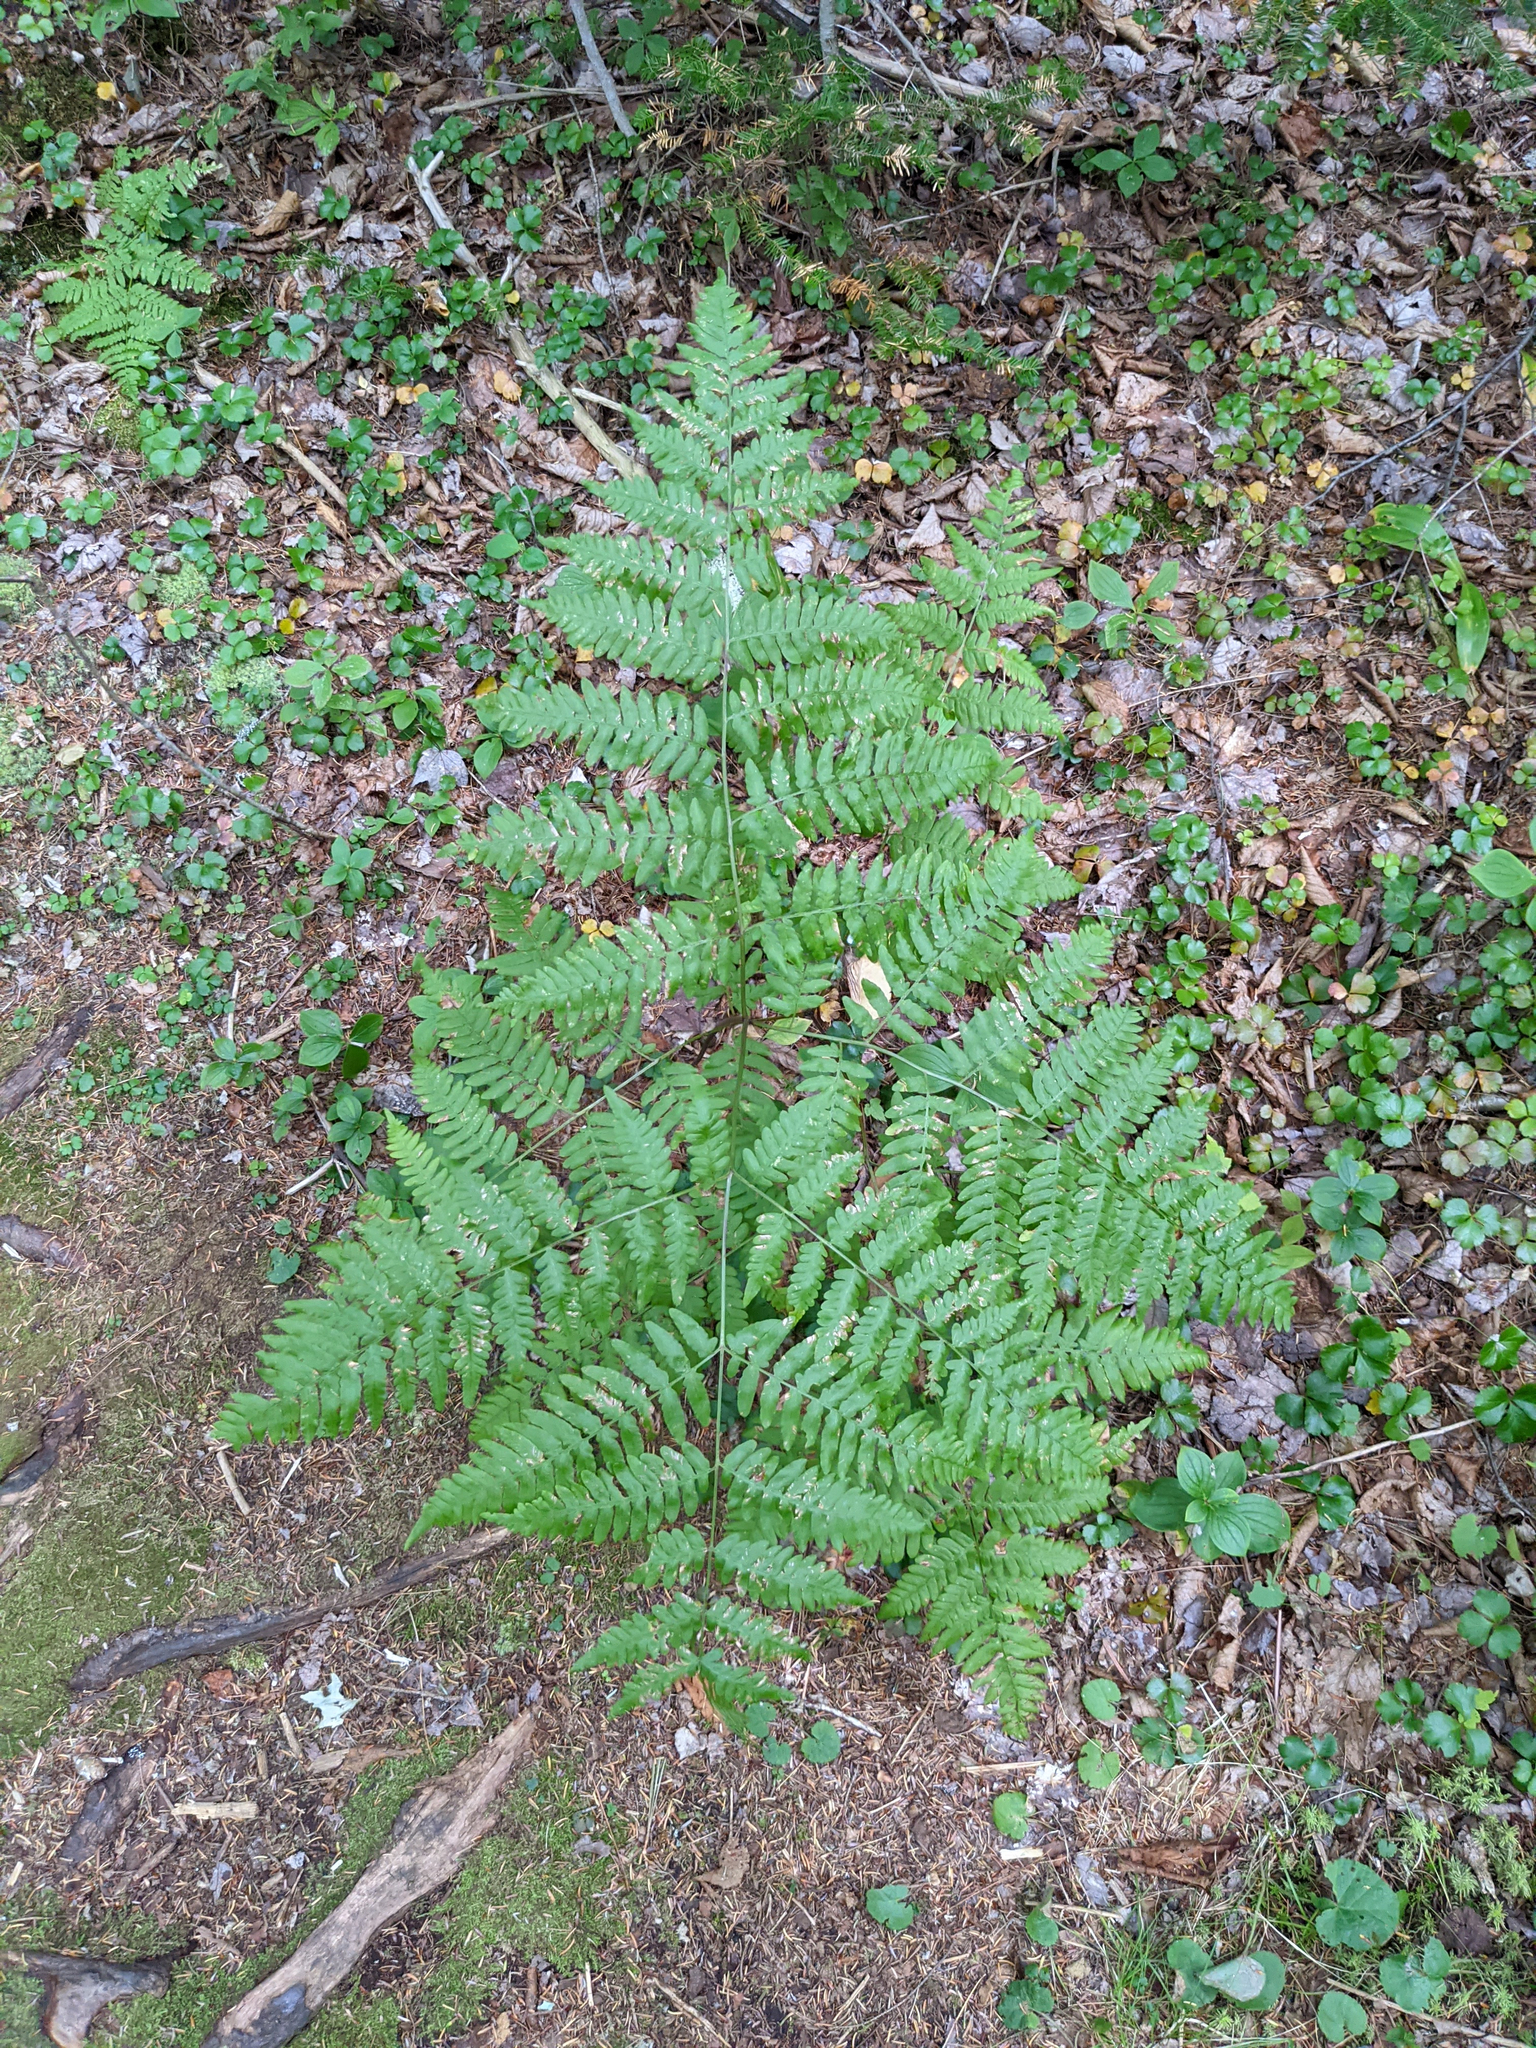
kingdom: Plantae
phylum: Tracheophyta
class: Polypodiopsida
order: Polypodiales
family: Dennstaedtiaceae
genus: Pteridium
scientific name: Pteridium aquilinum
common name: Bracken
